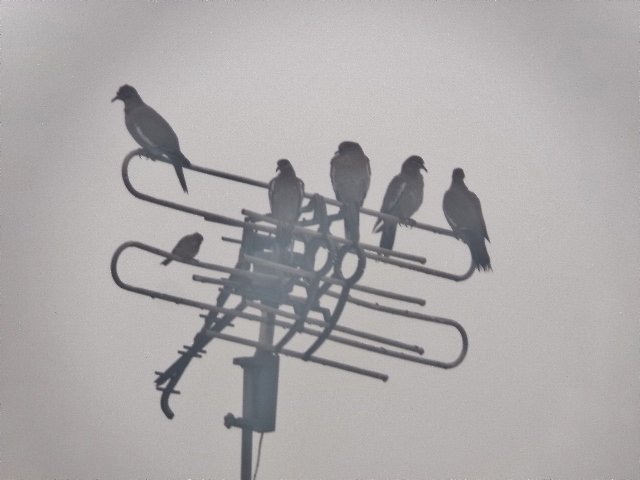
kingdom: Animalia
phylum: Chordata
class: Aves
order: Columbiformes
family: Columbidae
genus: Zenaida
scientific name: Zenaida asiatica
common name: White-winged dove
